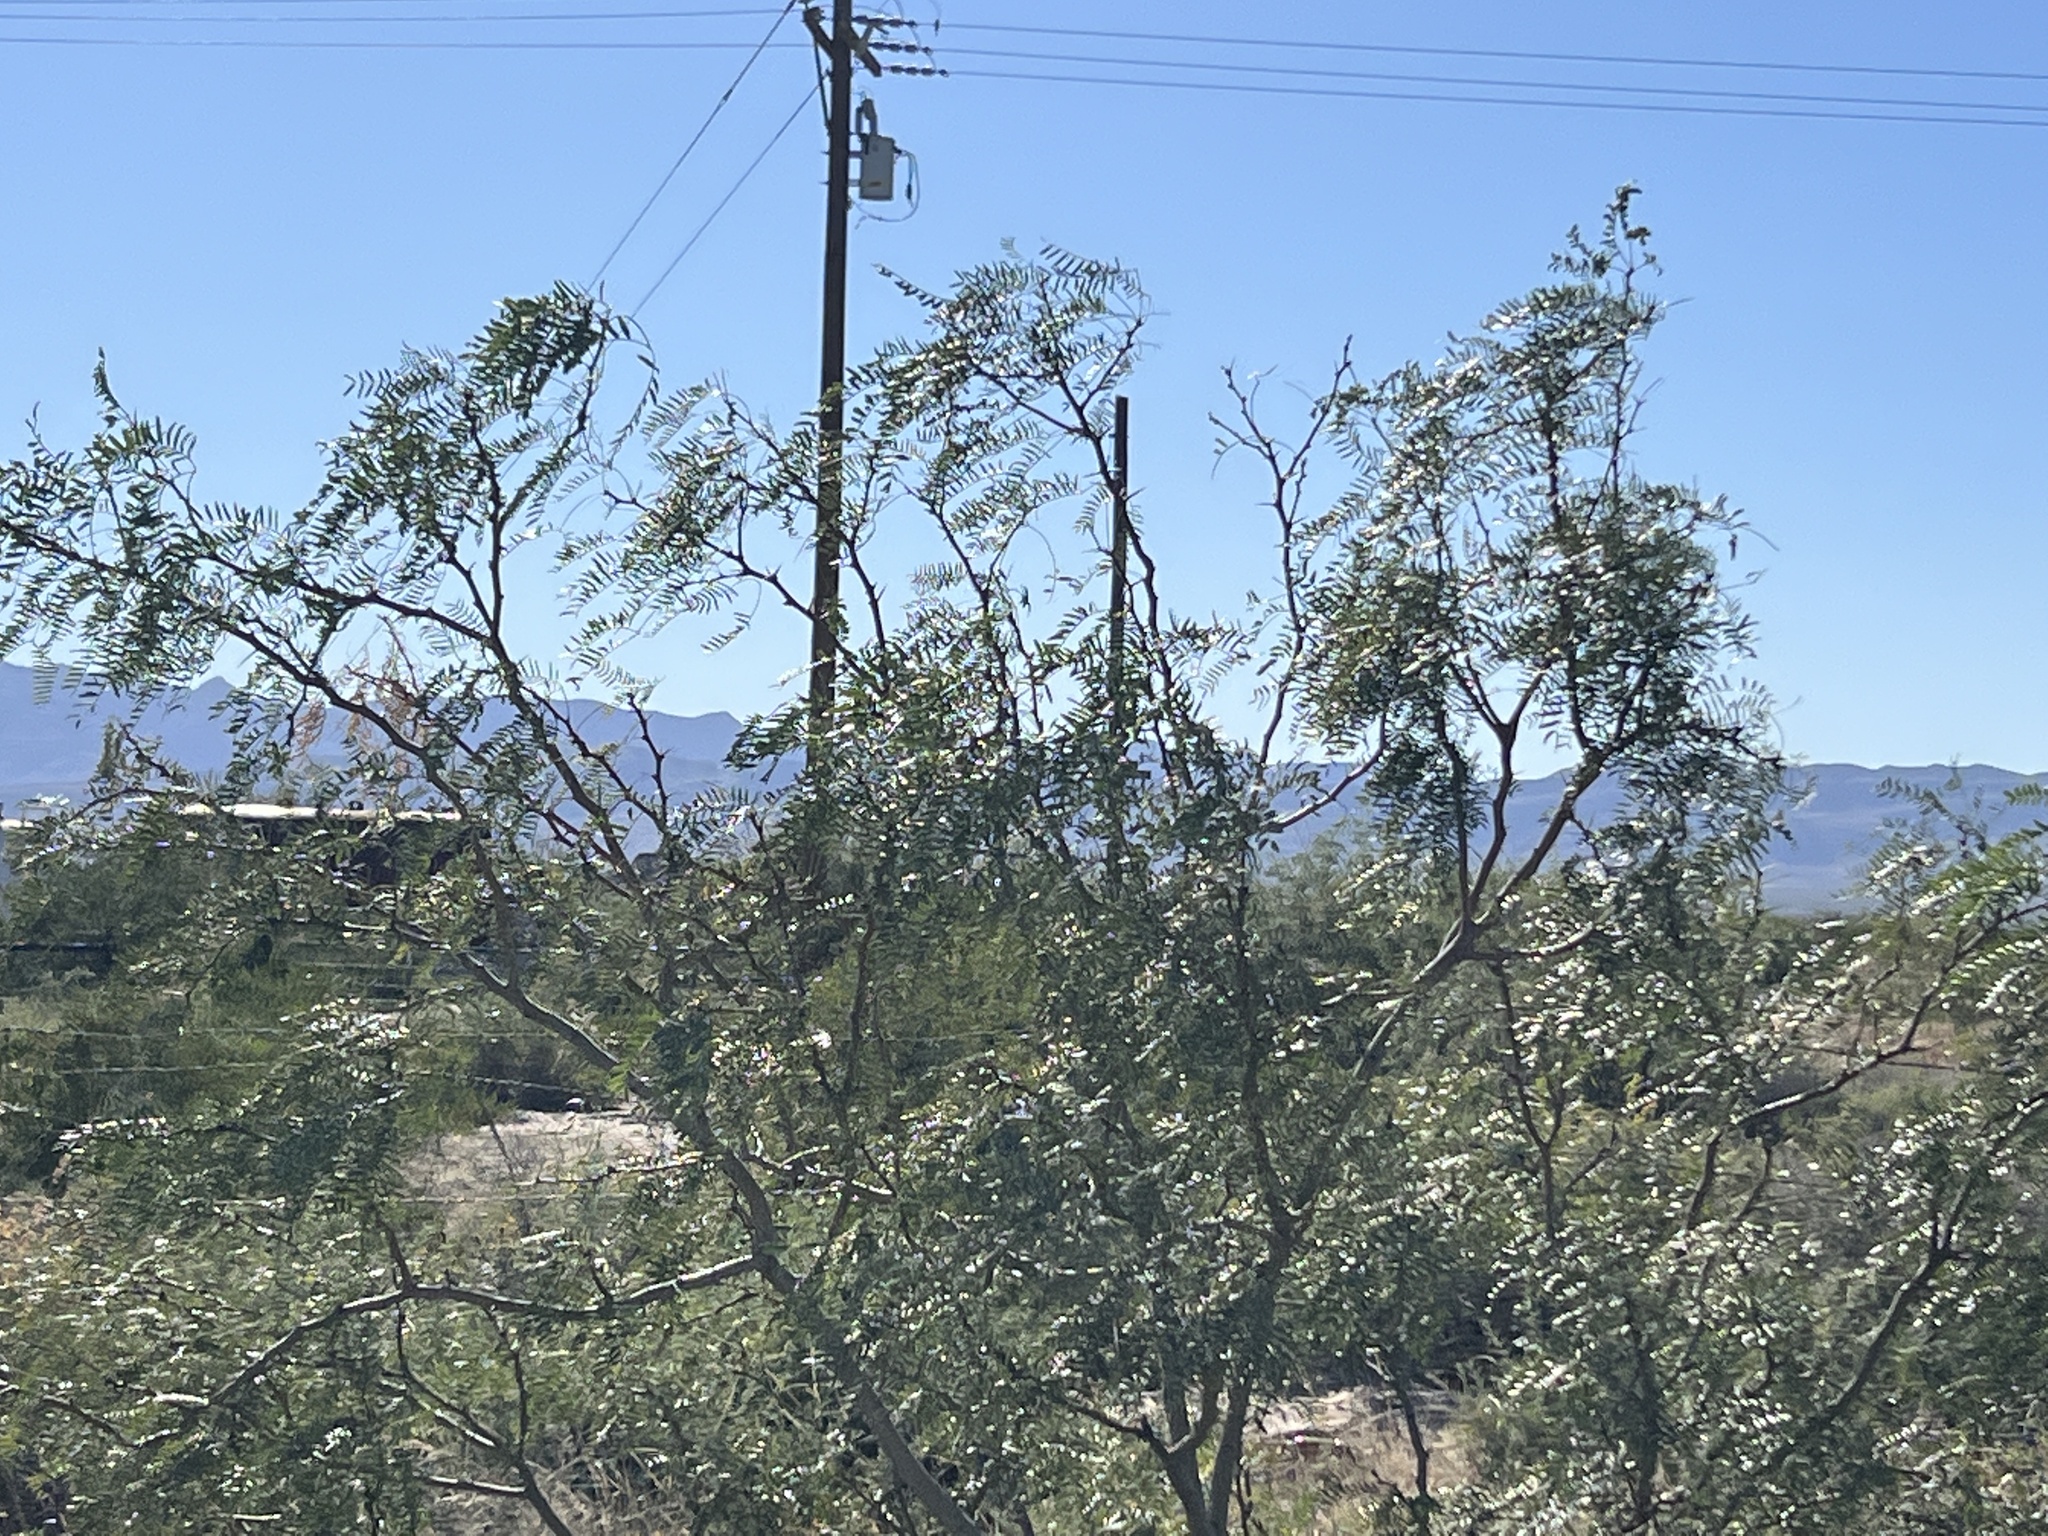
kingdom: Plantae
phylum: Tracheophyta
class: Magnoliopsida
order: Fabales
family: Fabaceae
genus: Prosopis
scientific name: Prosopis glandulosa
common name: Honey mesquite
